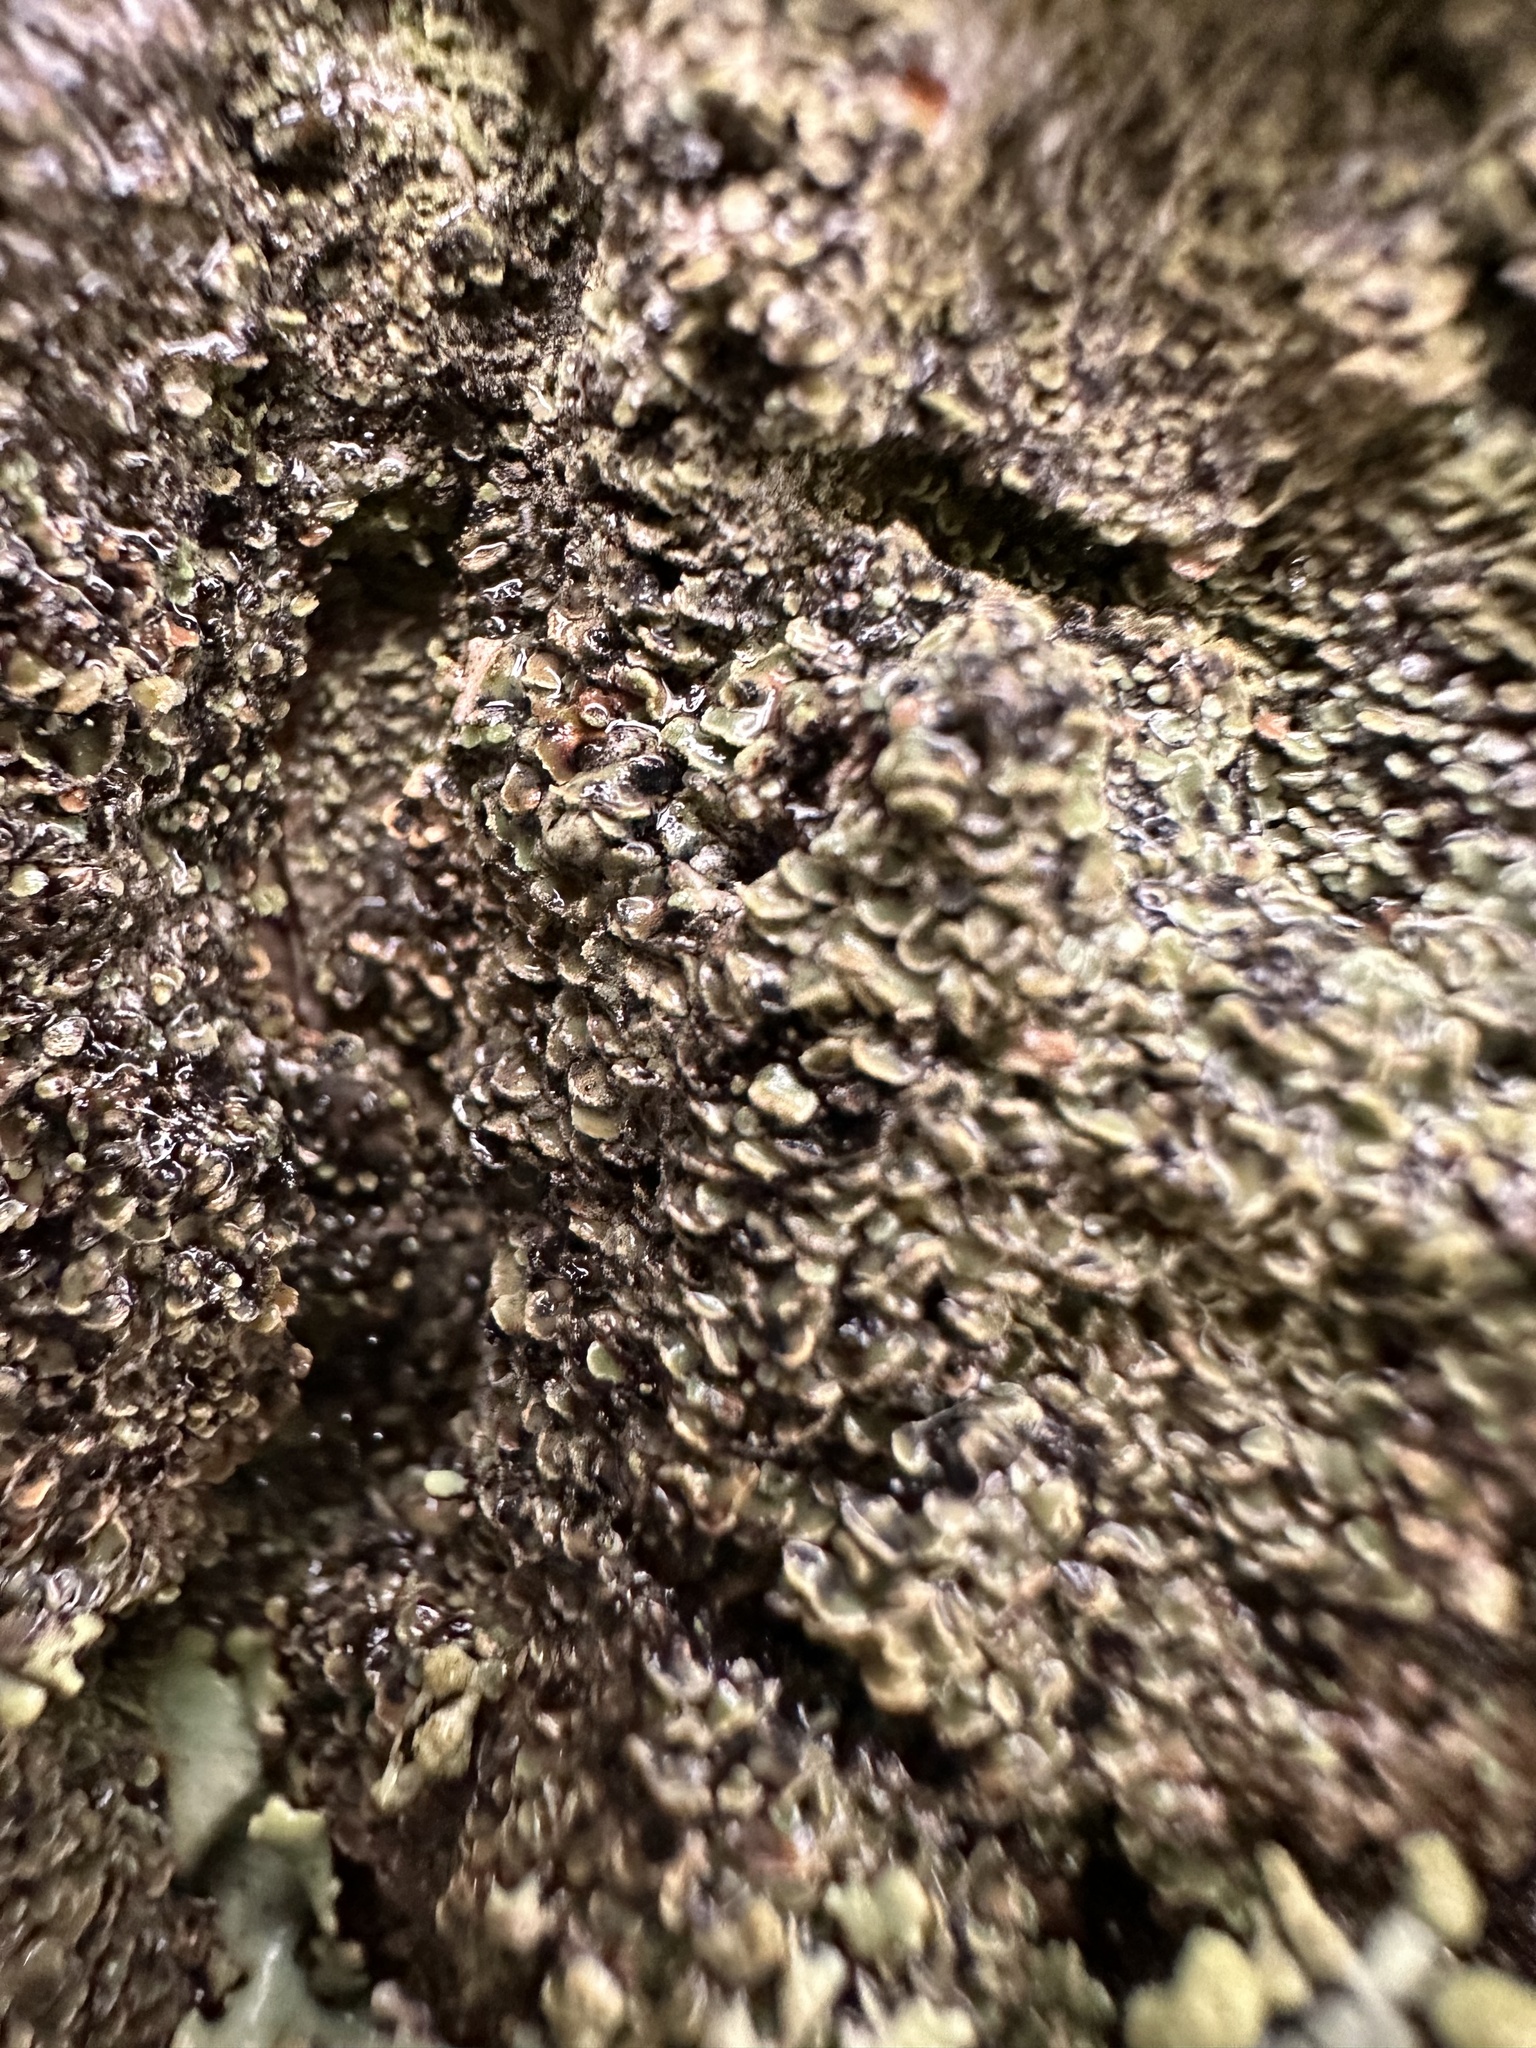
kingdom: Fungi
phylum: Ascomycota
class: Lecanoromycetes
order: Umbilicariales
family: Ophioparmaceae
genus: Hypocenomyce
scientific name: Hypocenomyce scalaris
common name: Common clam lichen
